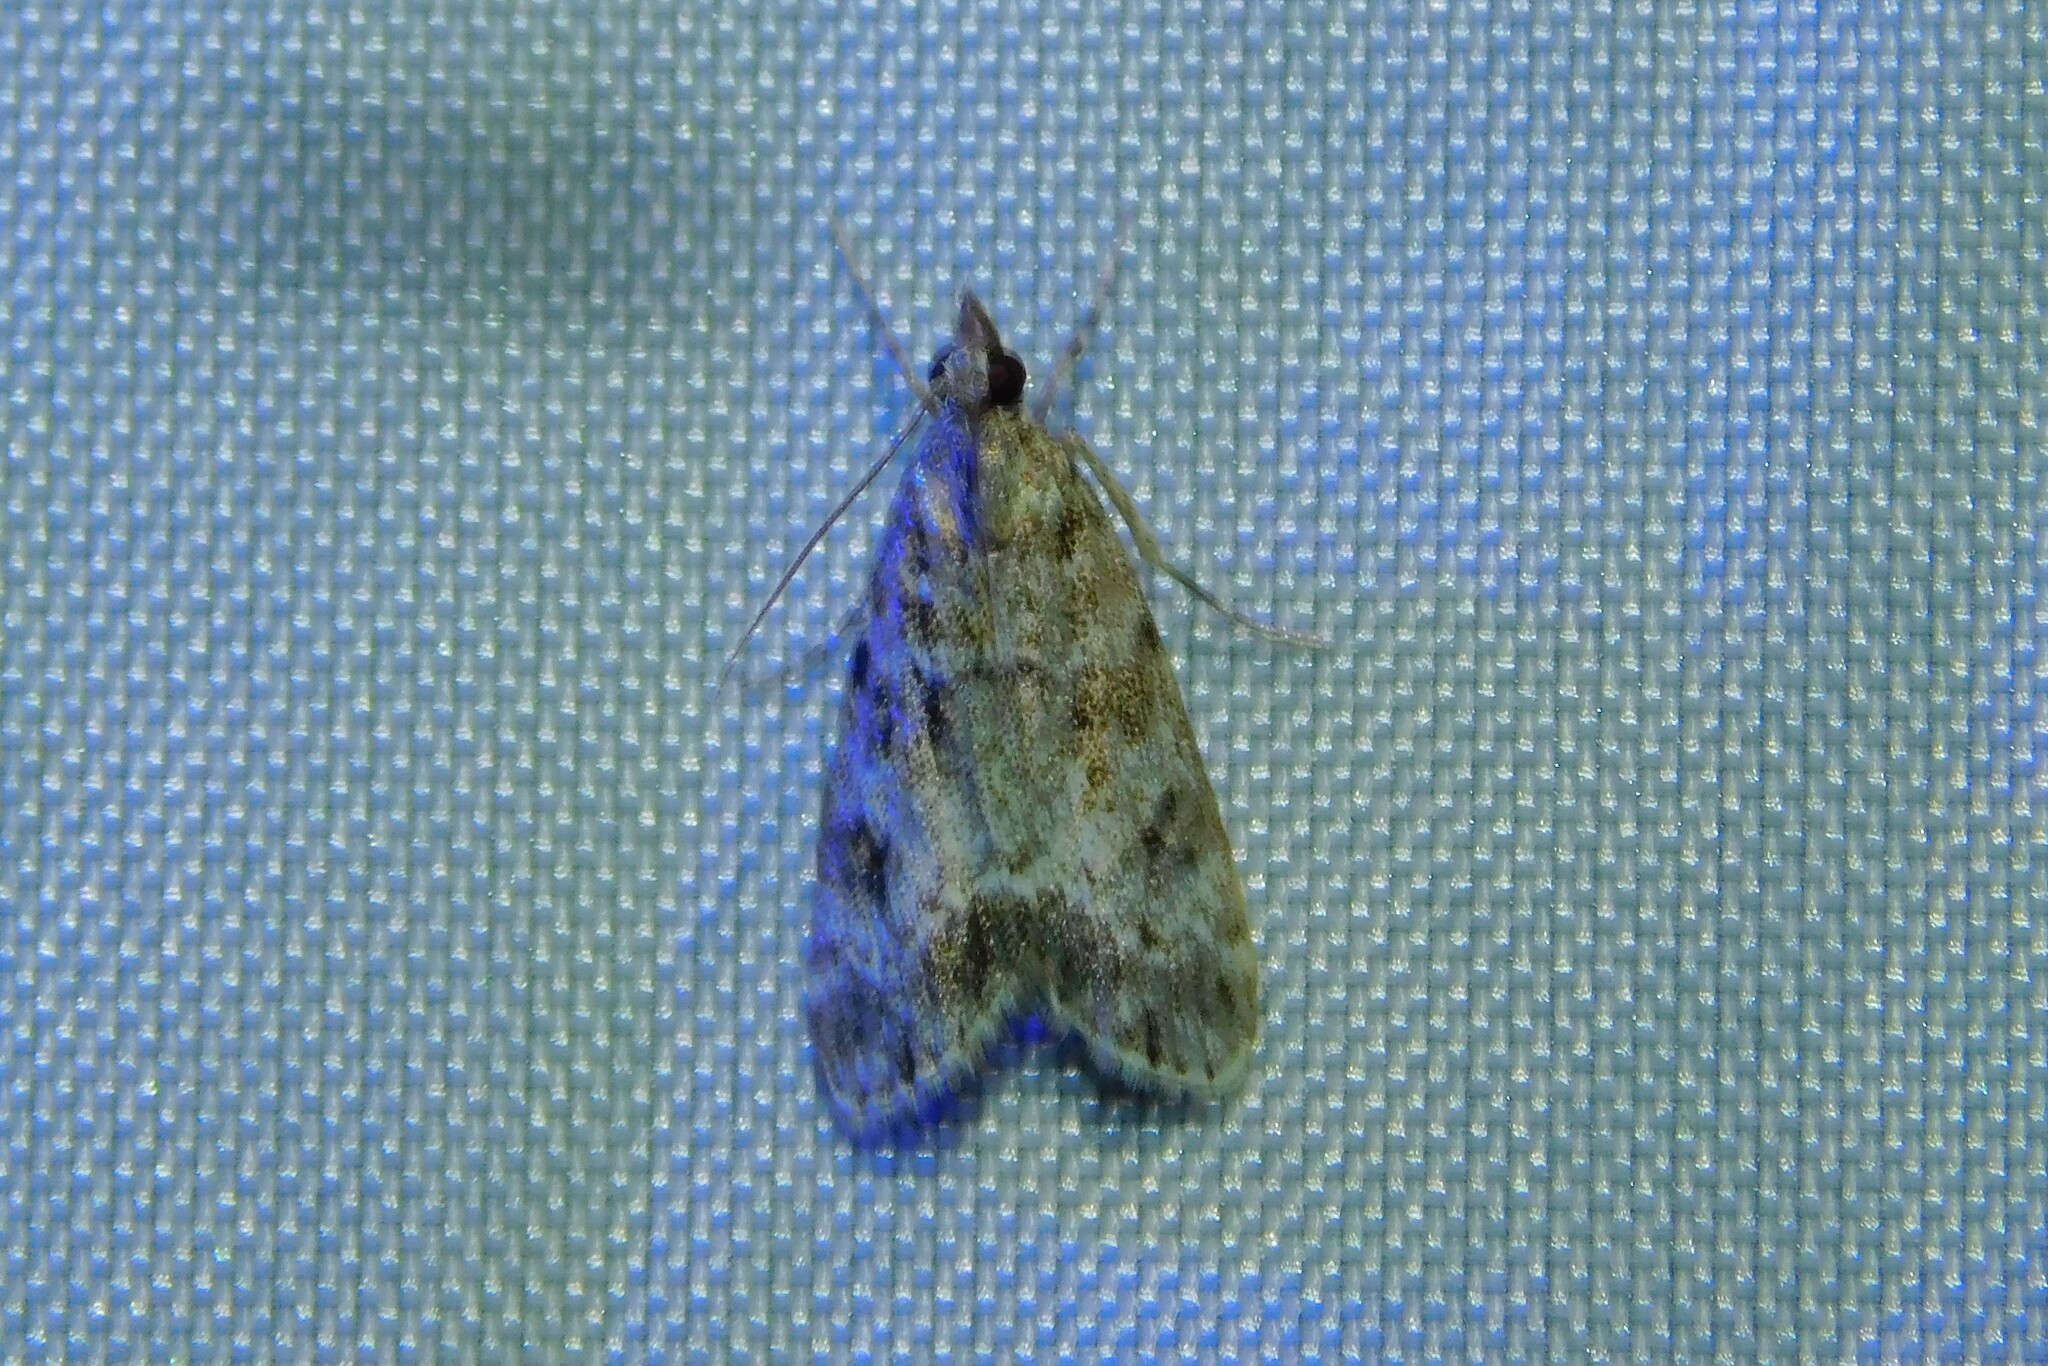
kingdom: Animalia
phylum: Arthropoda
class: Insecta
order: Lepidoptera
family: Crambidae
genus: Eudonia
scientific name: Eudonia mercurella
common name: Small grey
